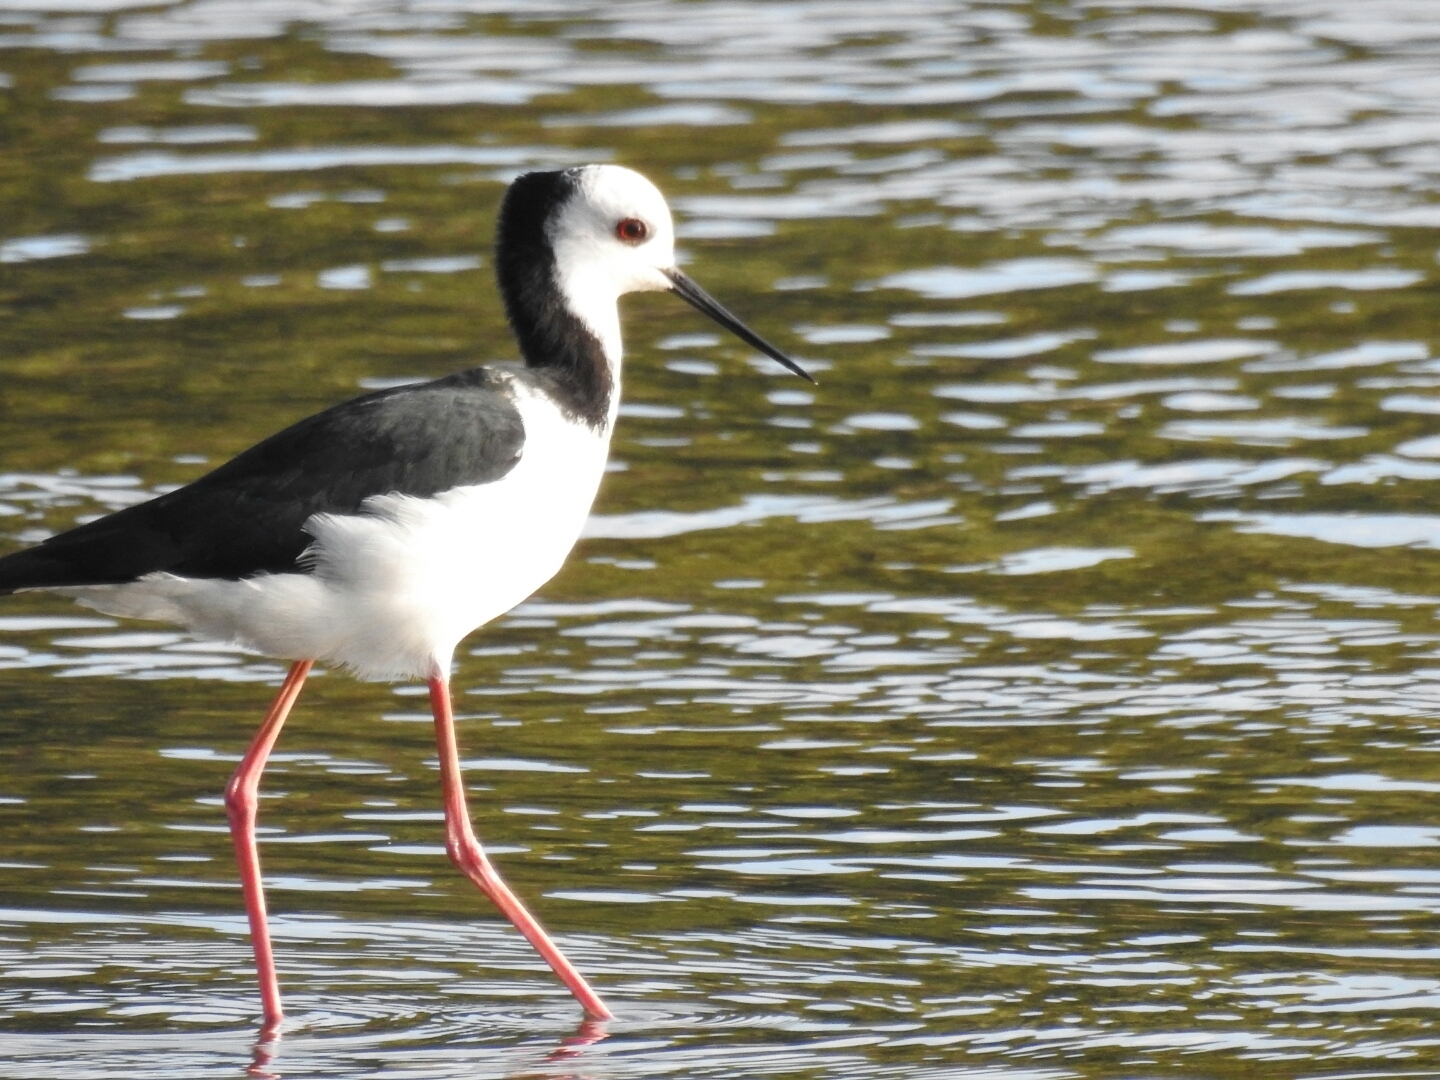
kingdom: Animalia
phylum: Chordata
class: Aves
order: Charadriiformes
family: Recurvirostridae
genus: Himantopus
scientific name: Himantopus leucocephalus
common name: White-headed stilt
